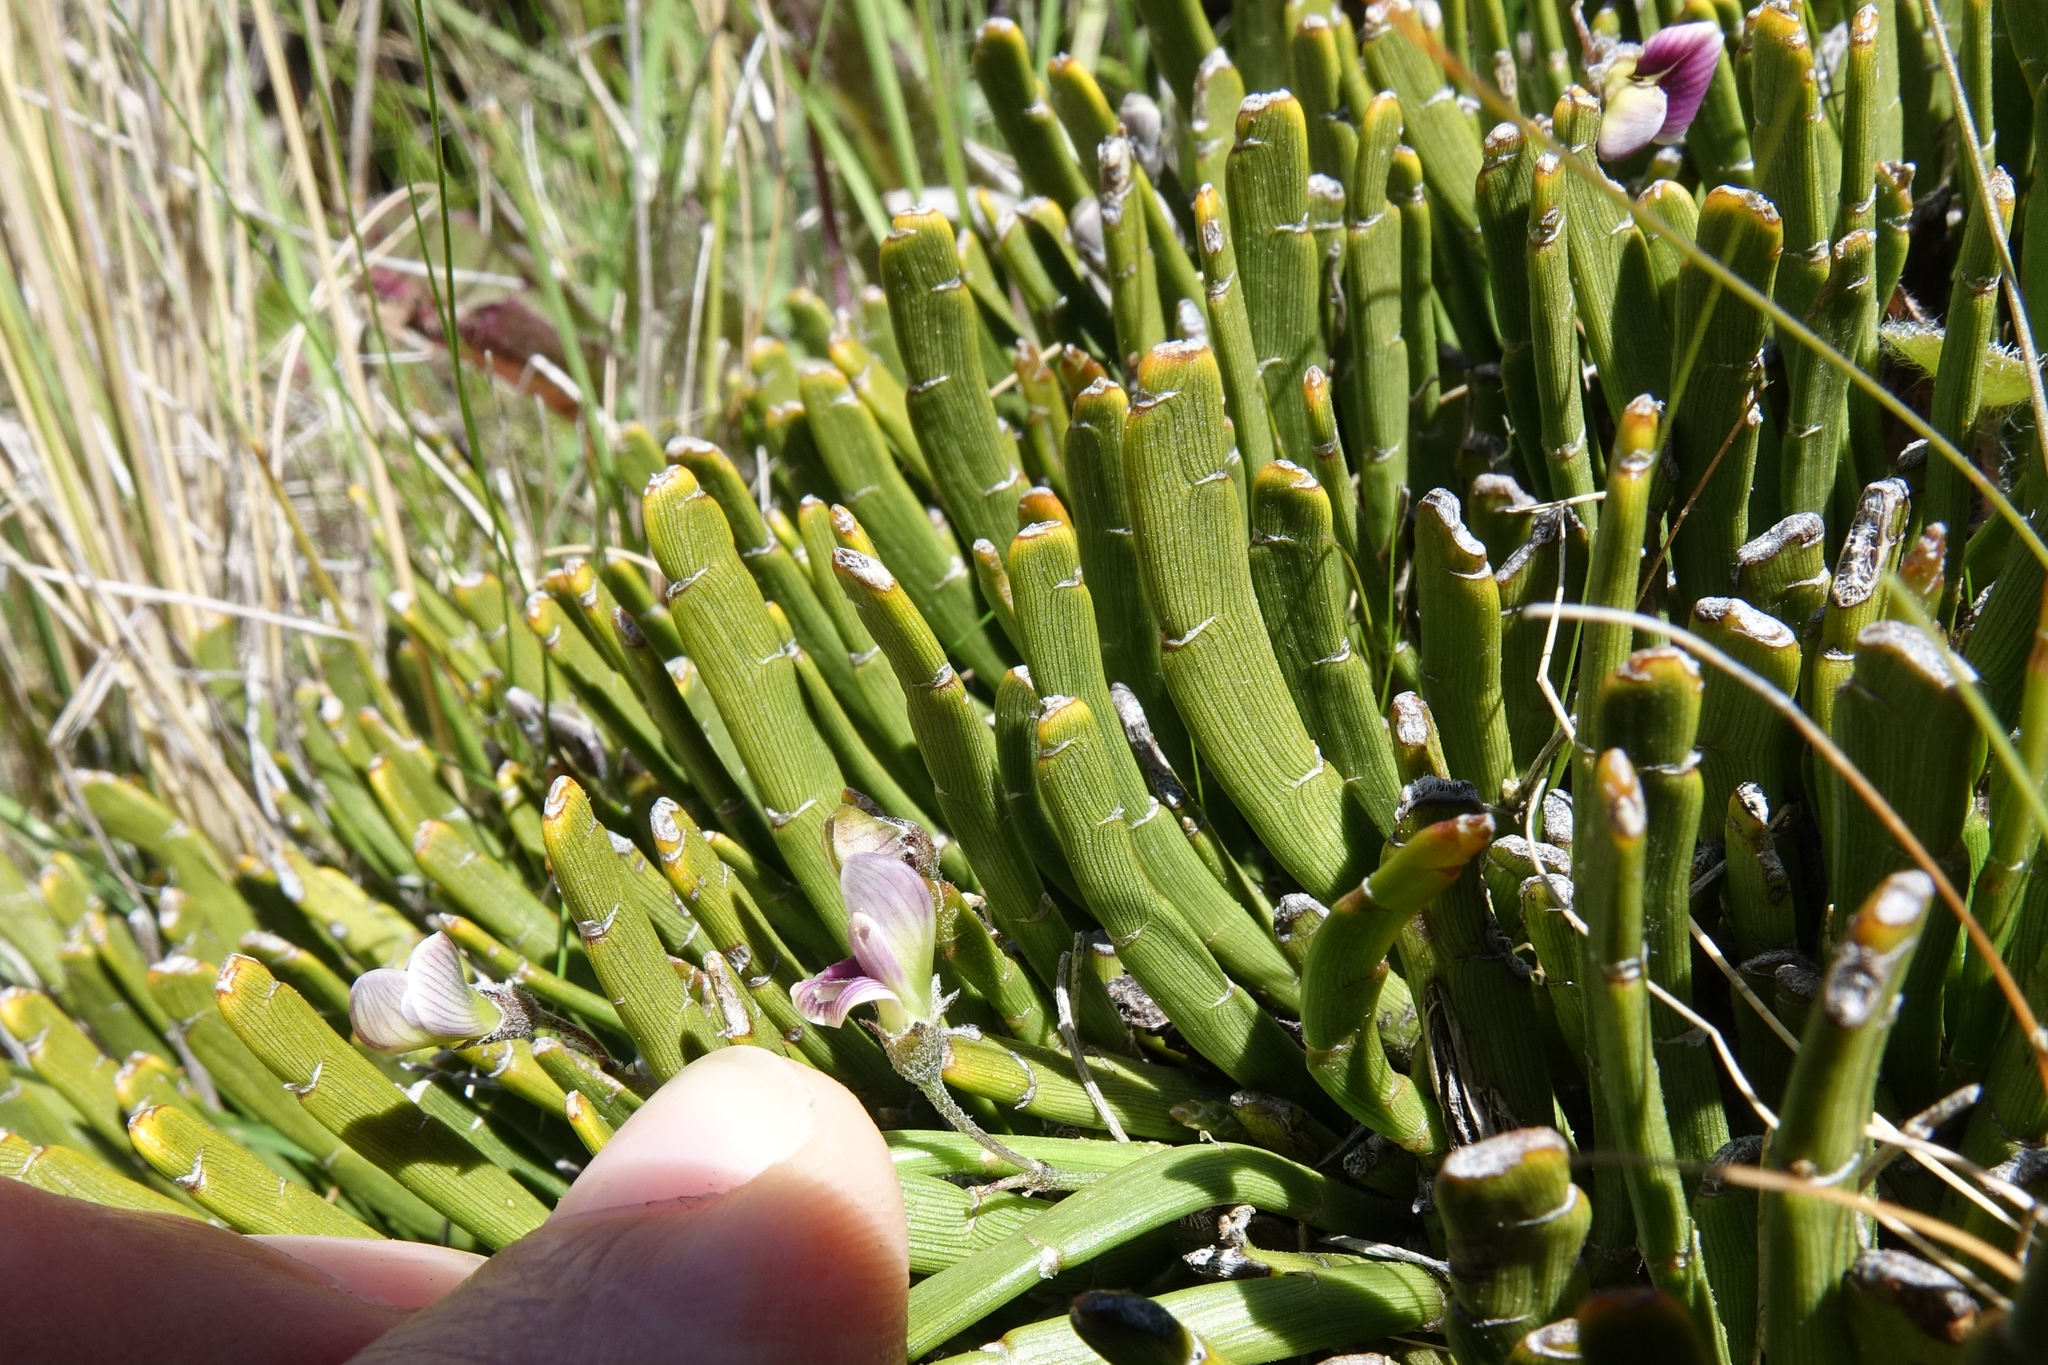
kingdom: Plantae
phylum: Tracheophyta
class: Magnoliopsida
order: Fabales
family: Fabaceae
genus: Carmichaelia
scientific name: Carmichaelia monroi
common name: Stout dwarf broom
